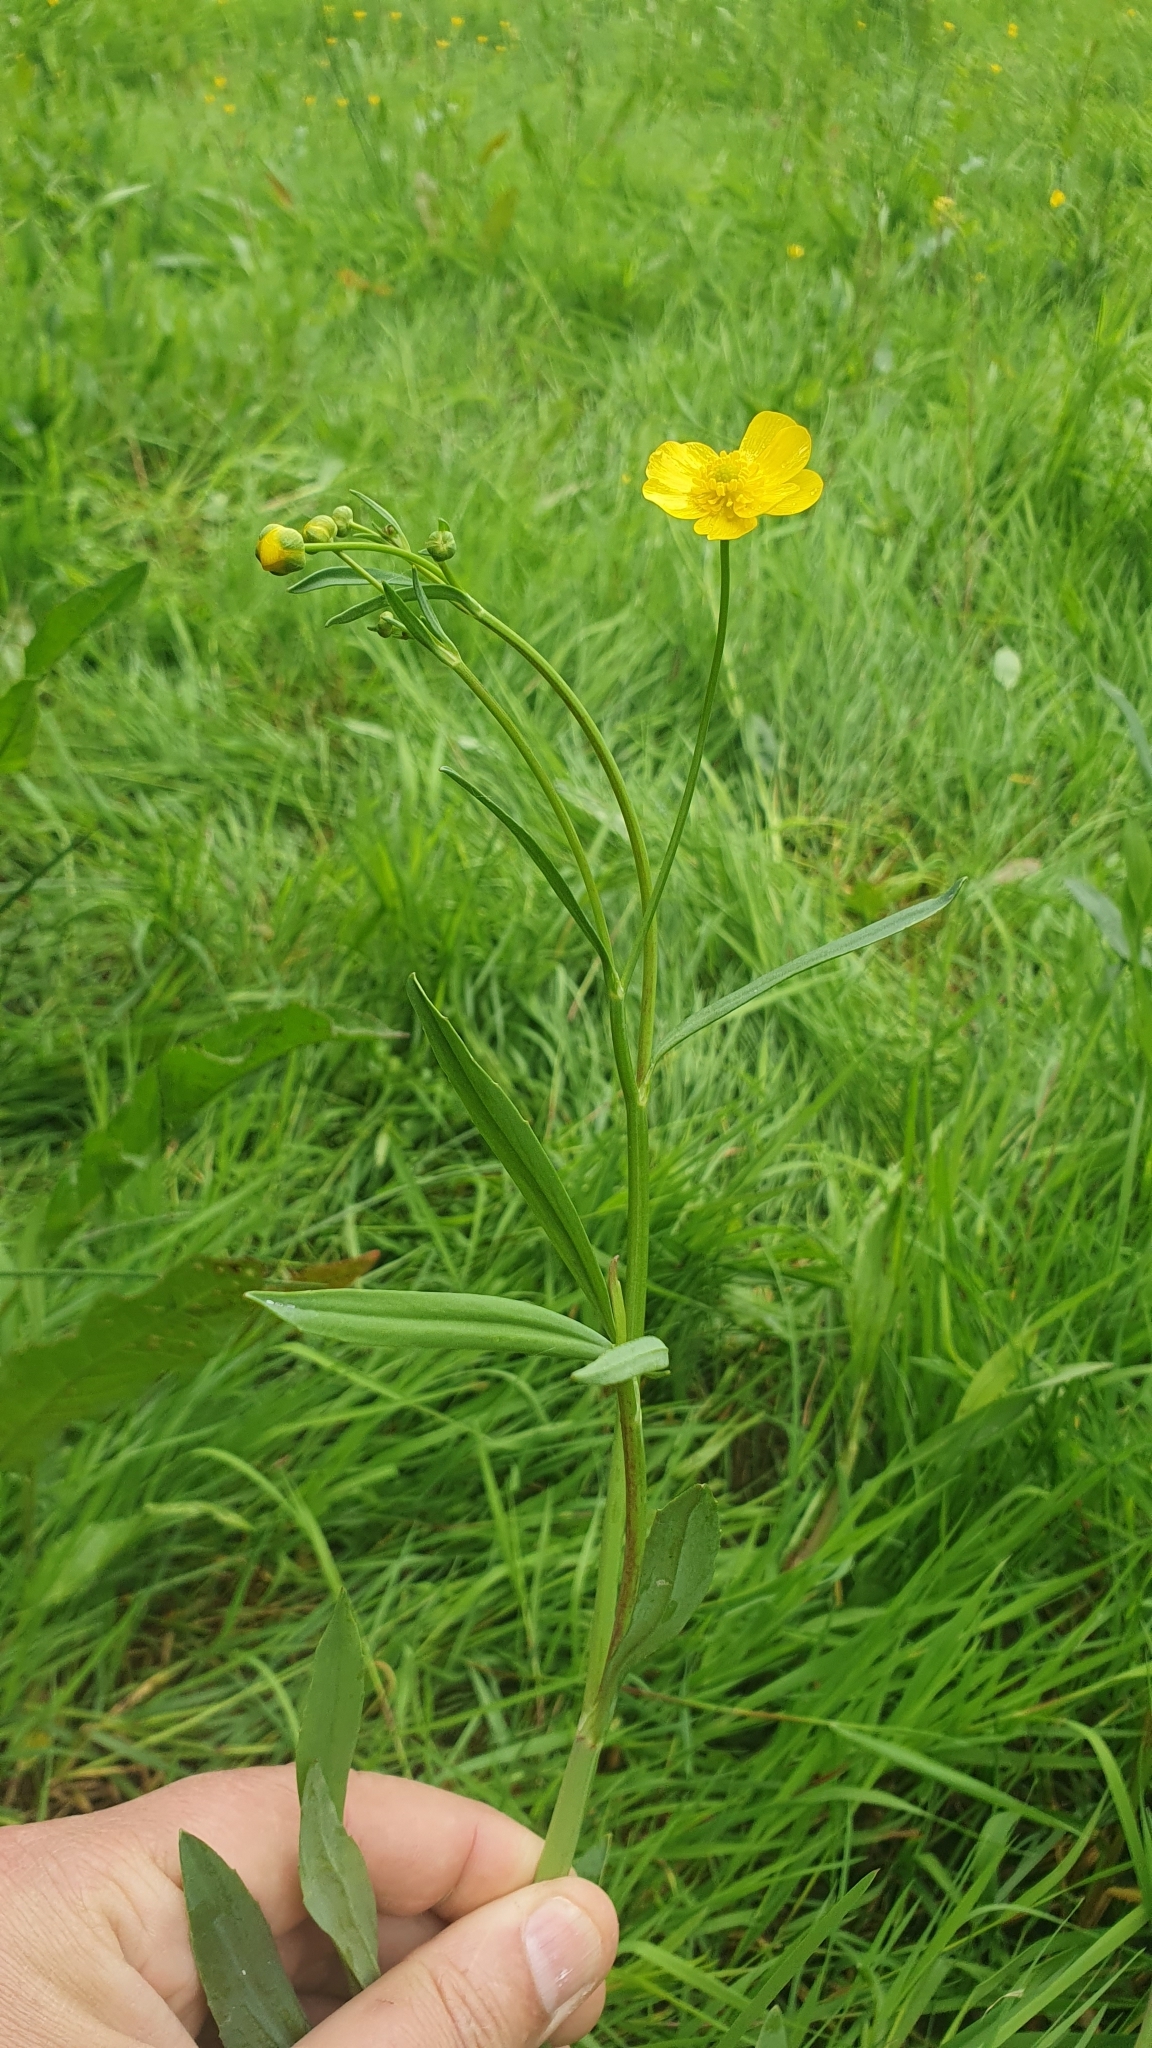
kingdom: Plantae
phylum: Tracheophyta
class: Magnoliopsida
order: Ranunculales
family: Ranunculaceae
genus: Ranunculus
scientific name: Ranunculus flammula
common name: Lesser spearwort
